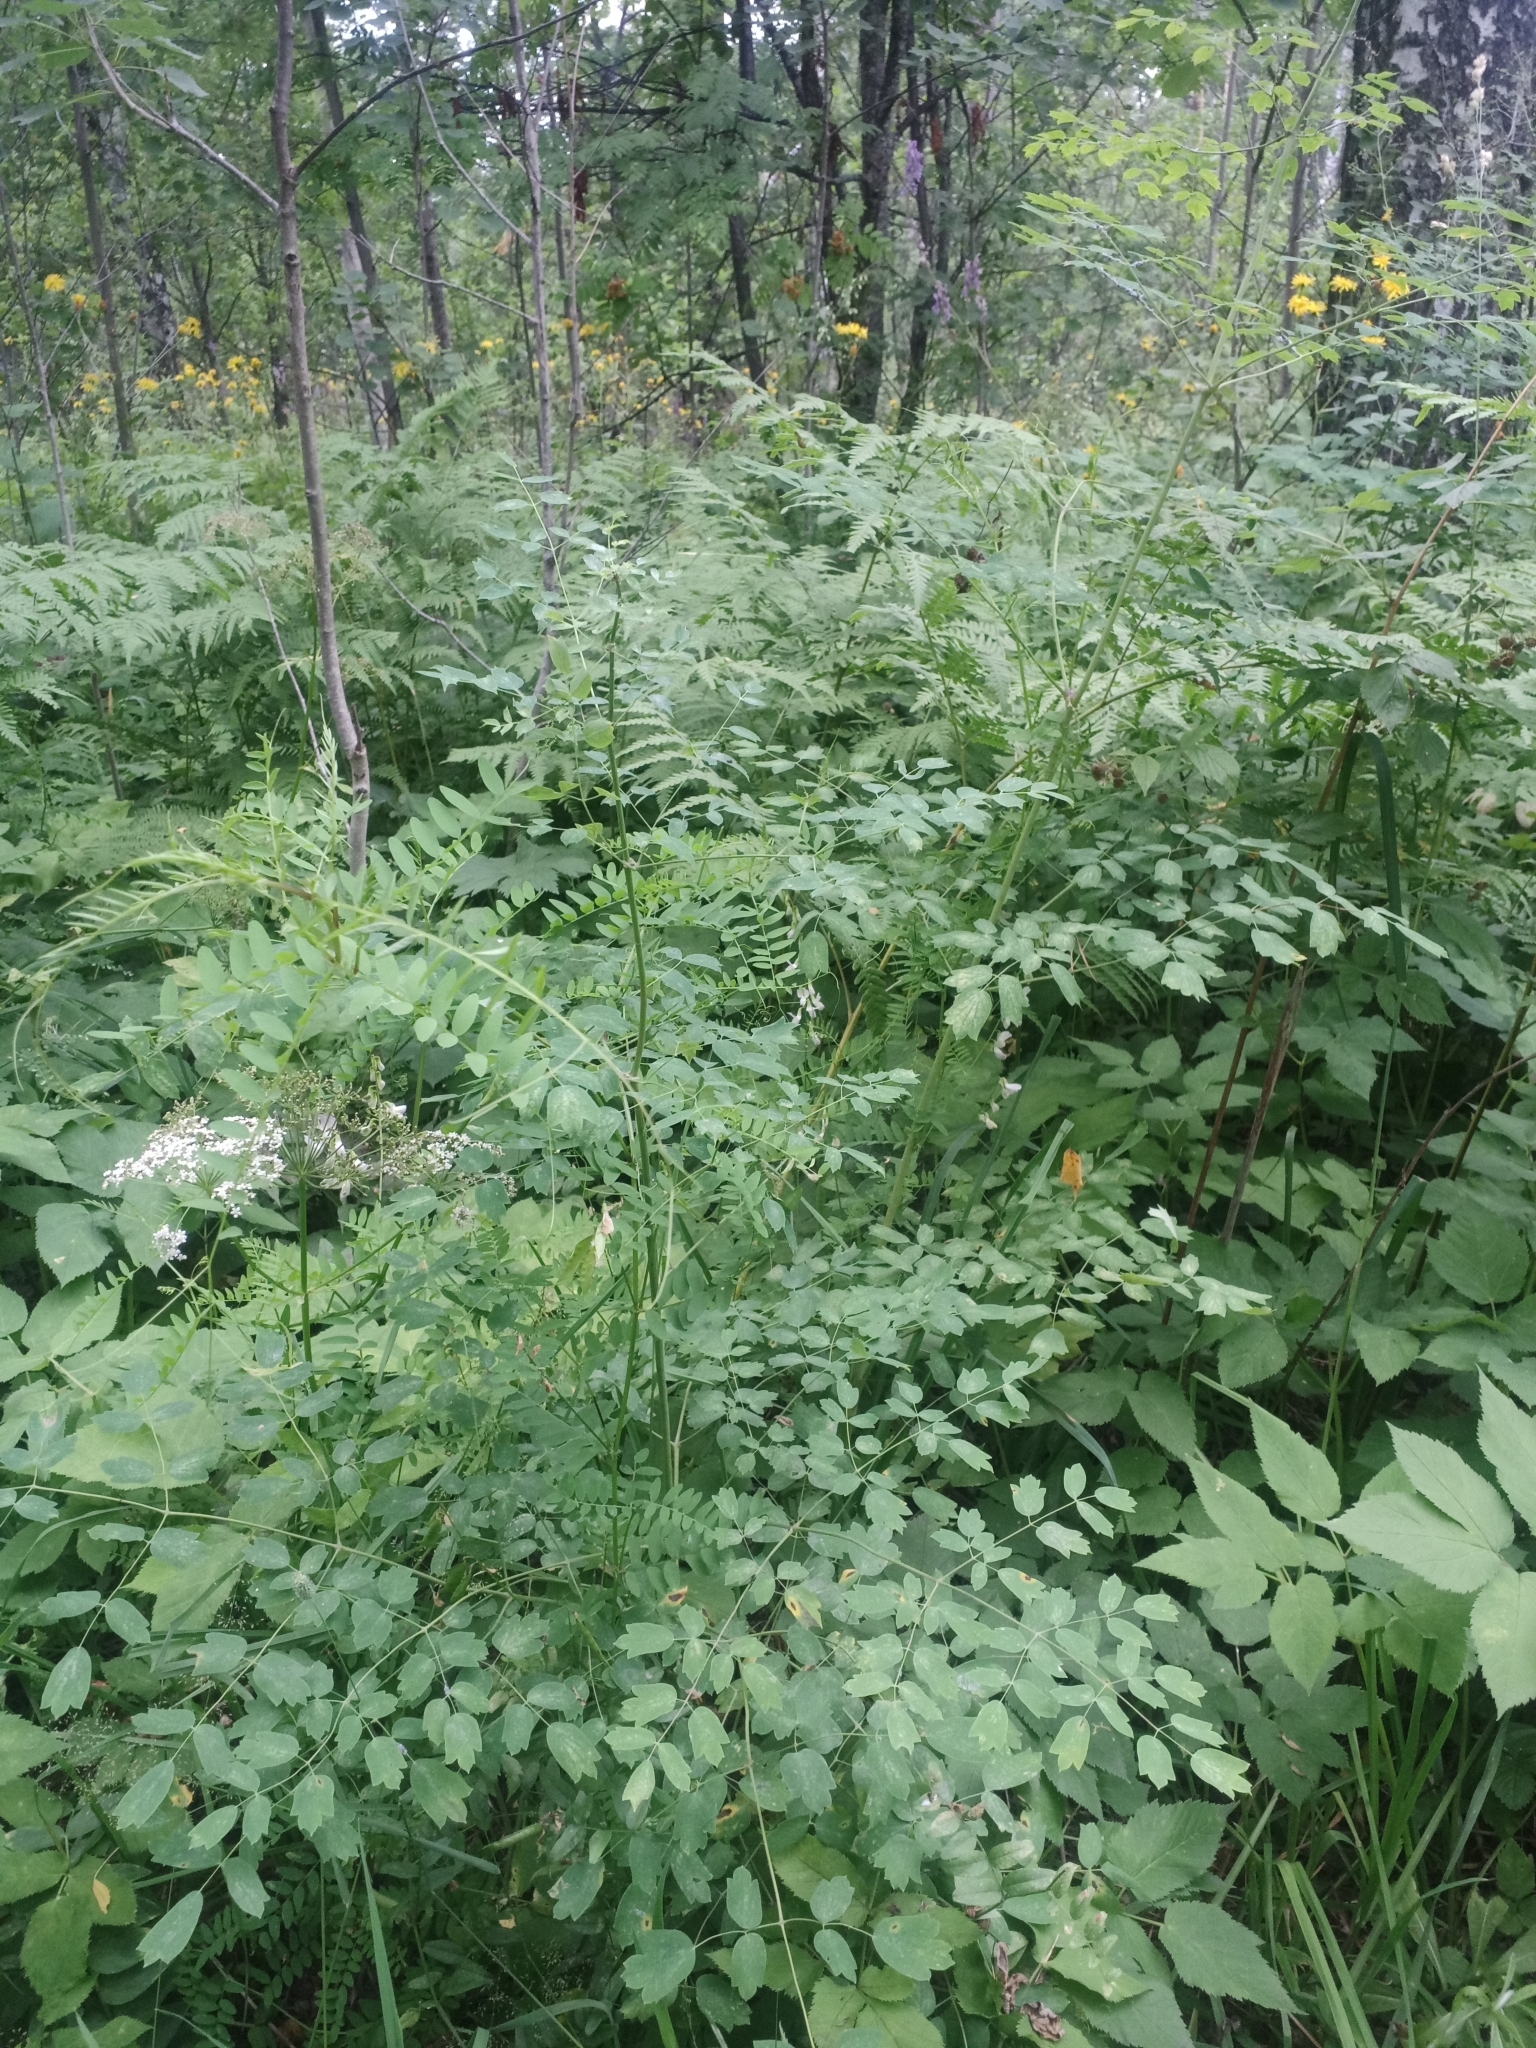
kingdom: Plantae
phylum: Tracheophyta
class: Magnoliopsida
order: Ranunculales
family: Ranunculaceae
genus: Thalictrum
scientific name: Thalictrum minus
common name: Lesser meadow-rue
